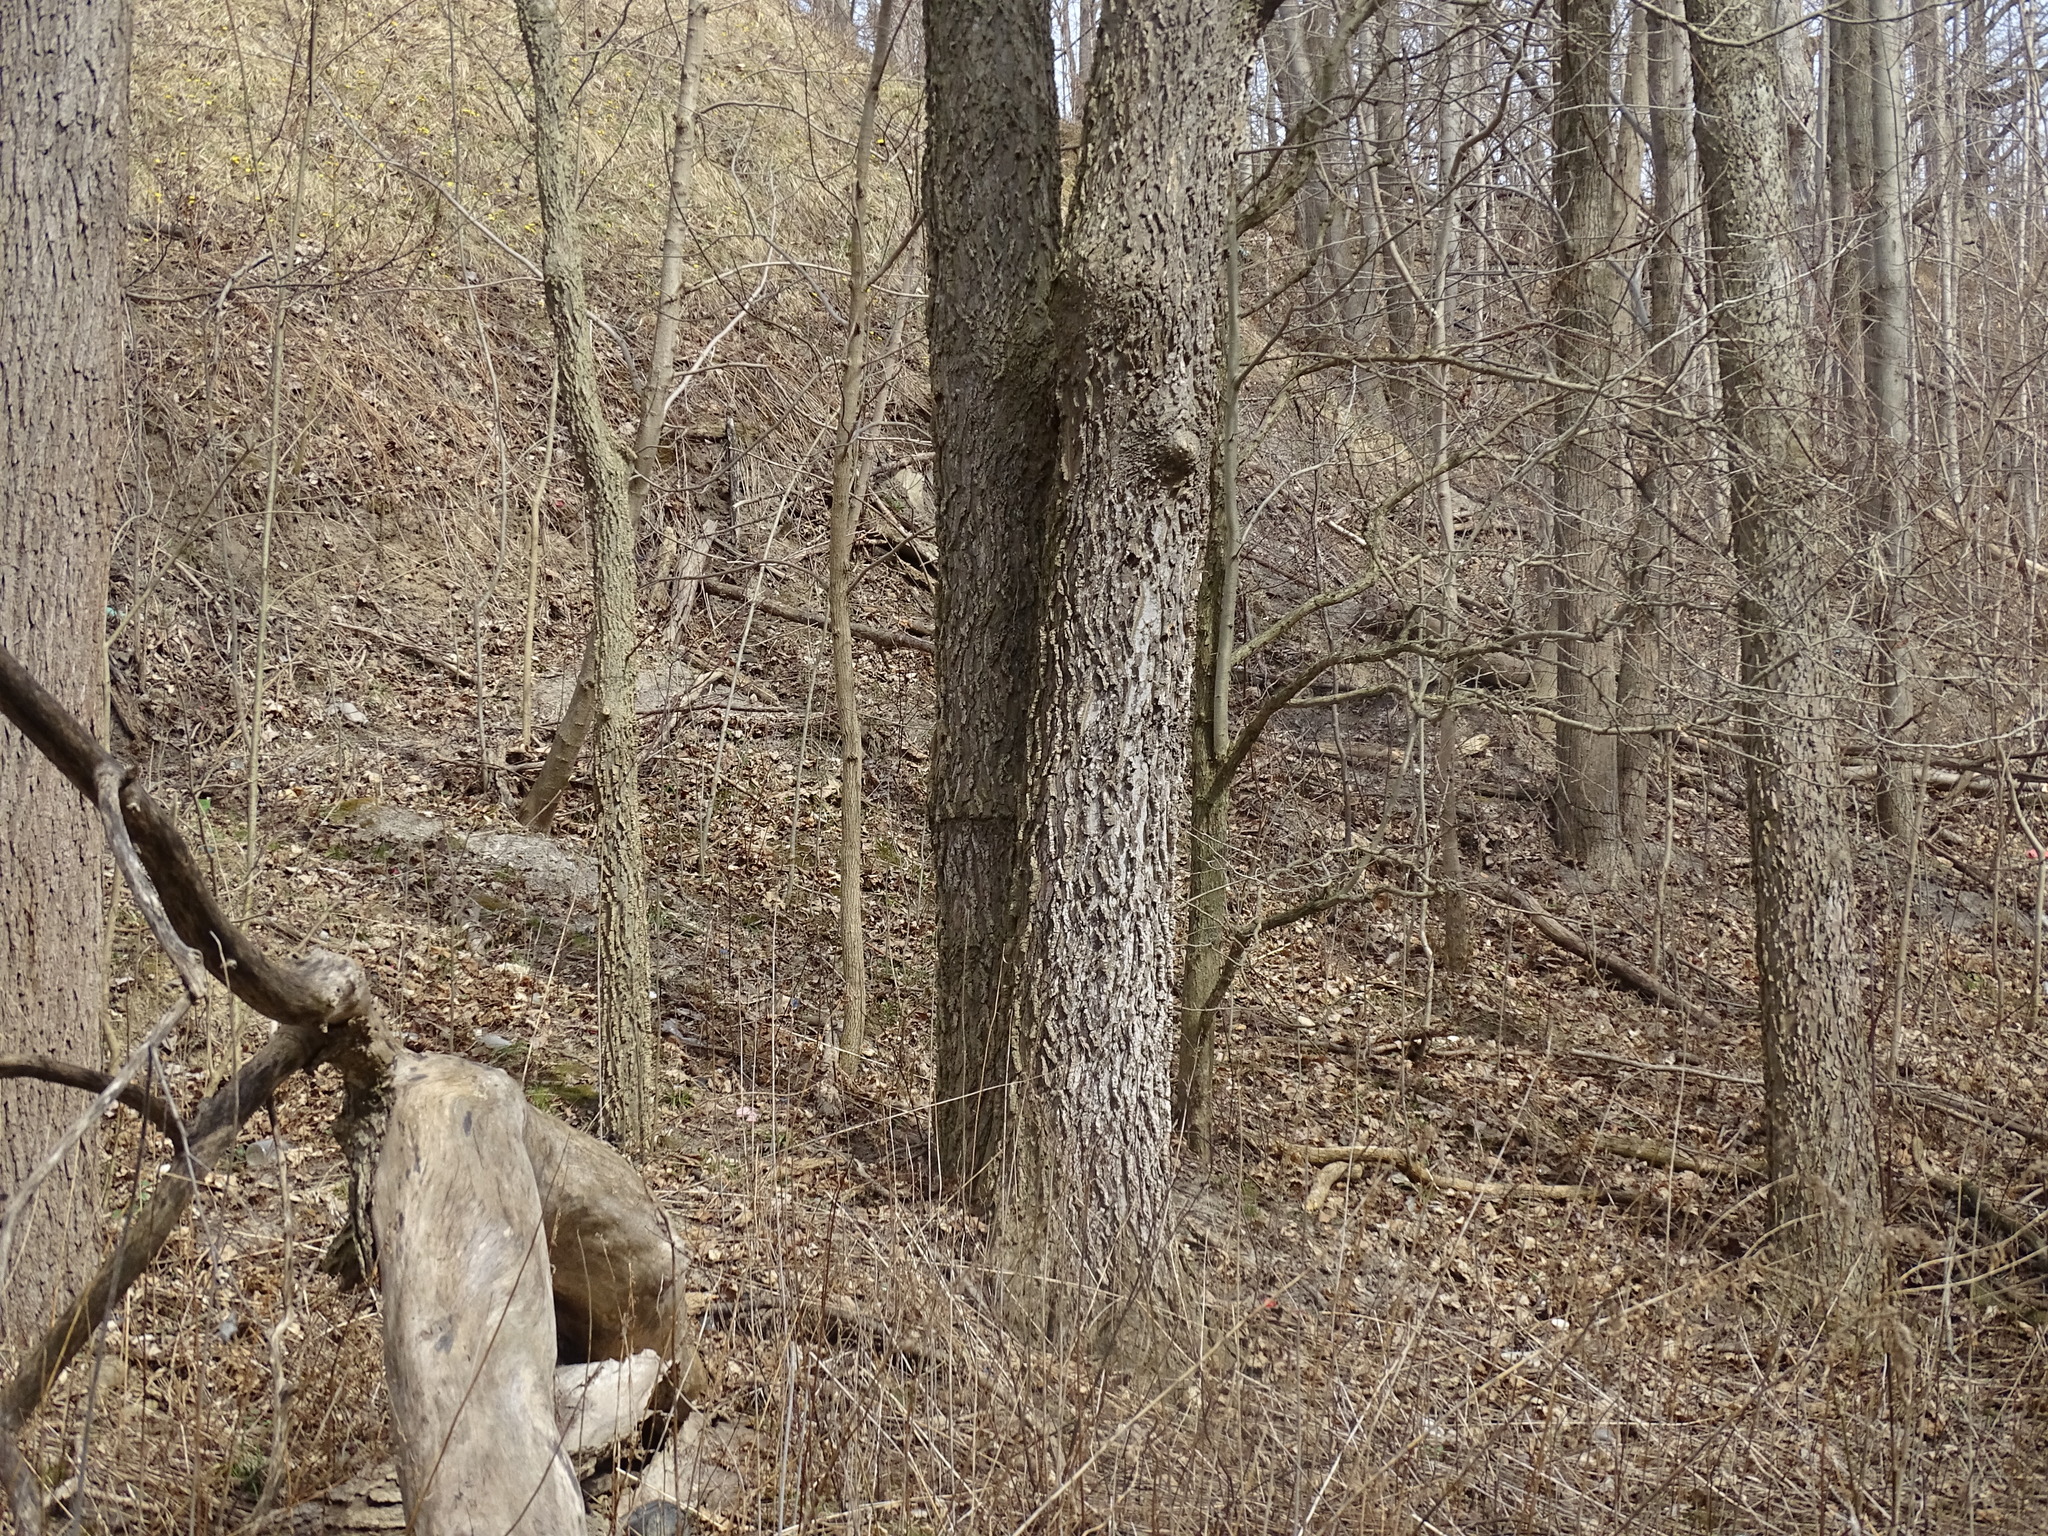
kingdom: Plantae
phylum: Tracheophyta
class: Magnoliopsida
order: Rosales
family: Cannabaceae
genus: Celtis
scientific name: Celtis occidentalis
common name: Common hackberry
